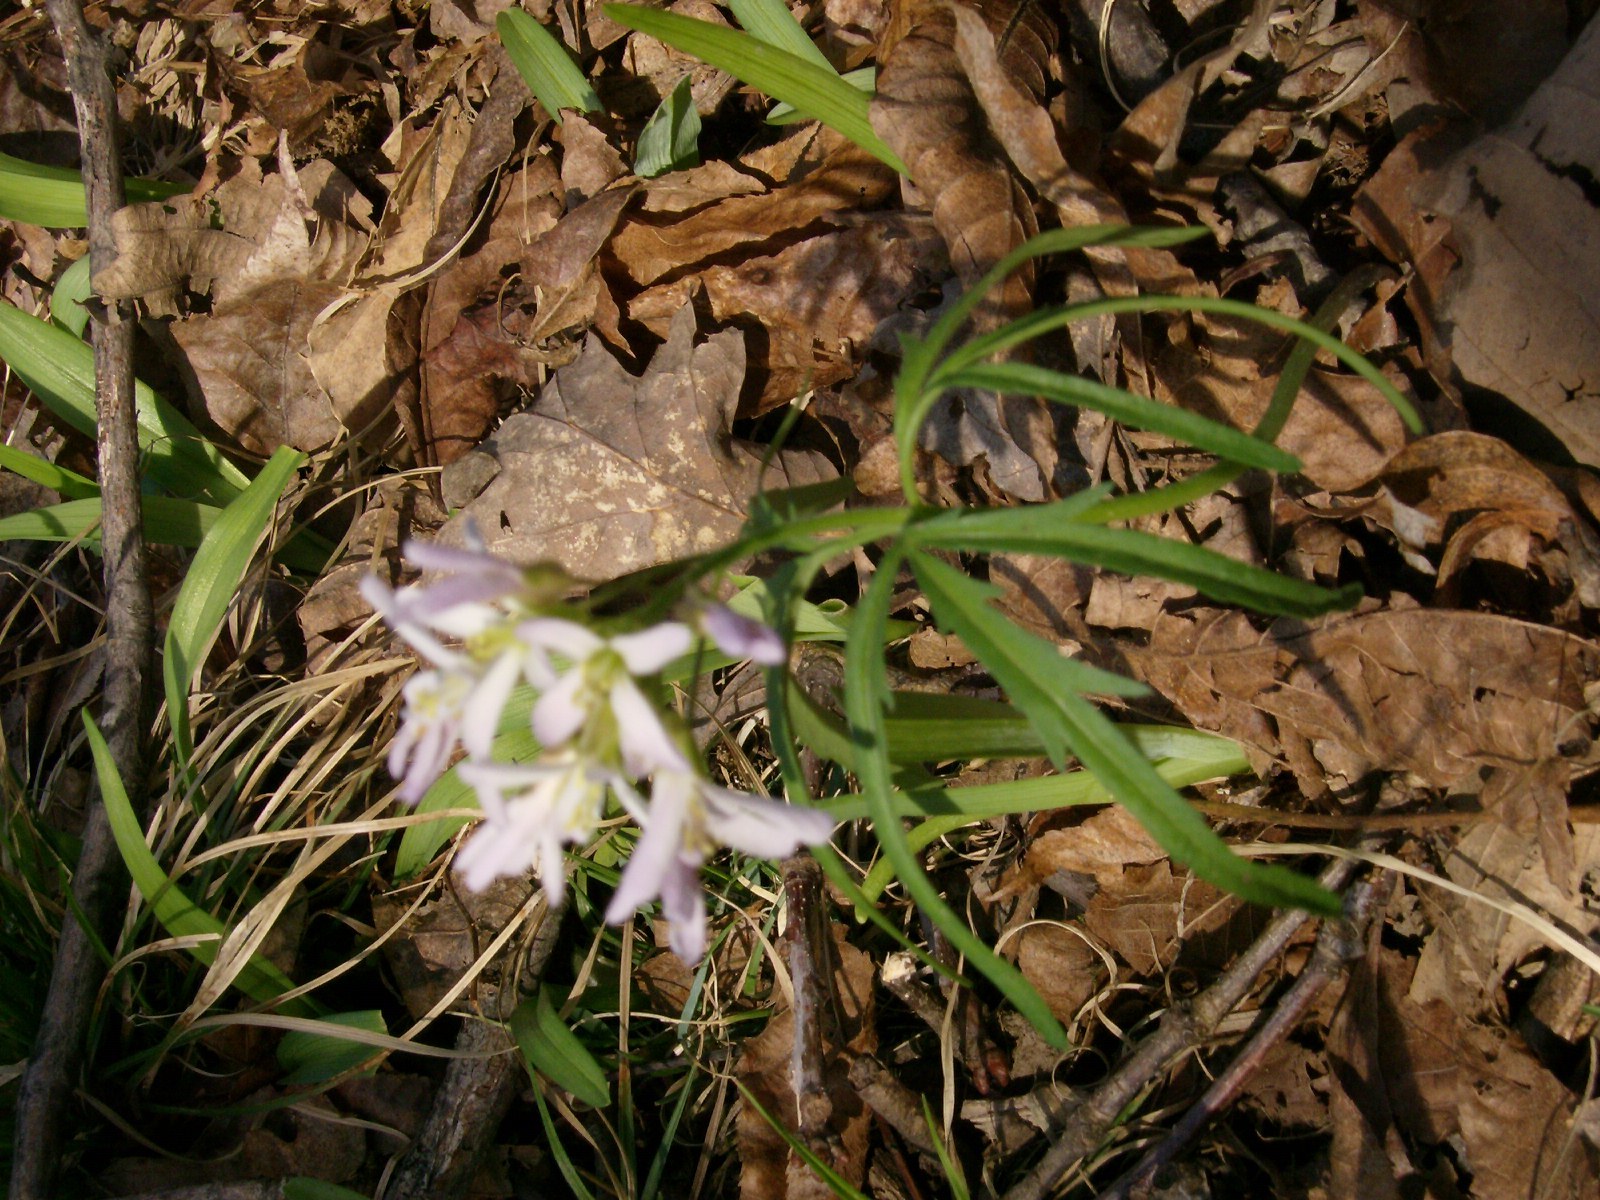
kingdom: Plantae
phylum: Tracheophyta
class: Magnoliopsida
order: Brassicales
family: Brassicaceae
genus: Cardamine
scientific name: Cardamine concatenata
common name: Cut-leaf toothcup
